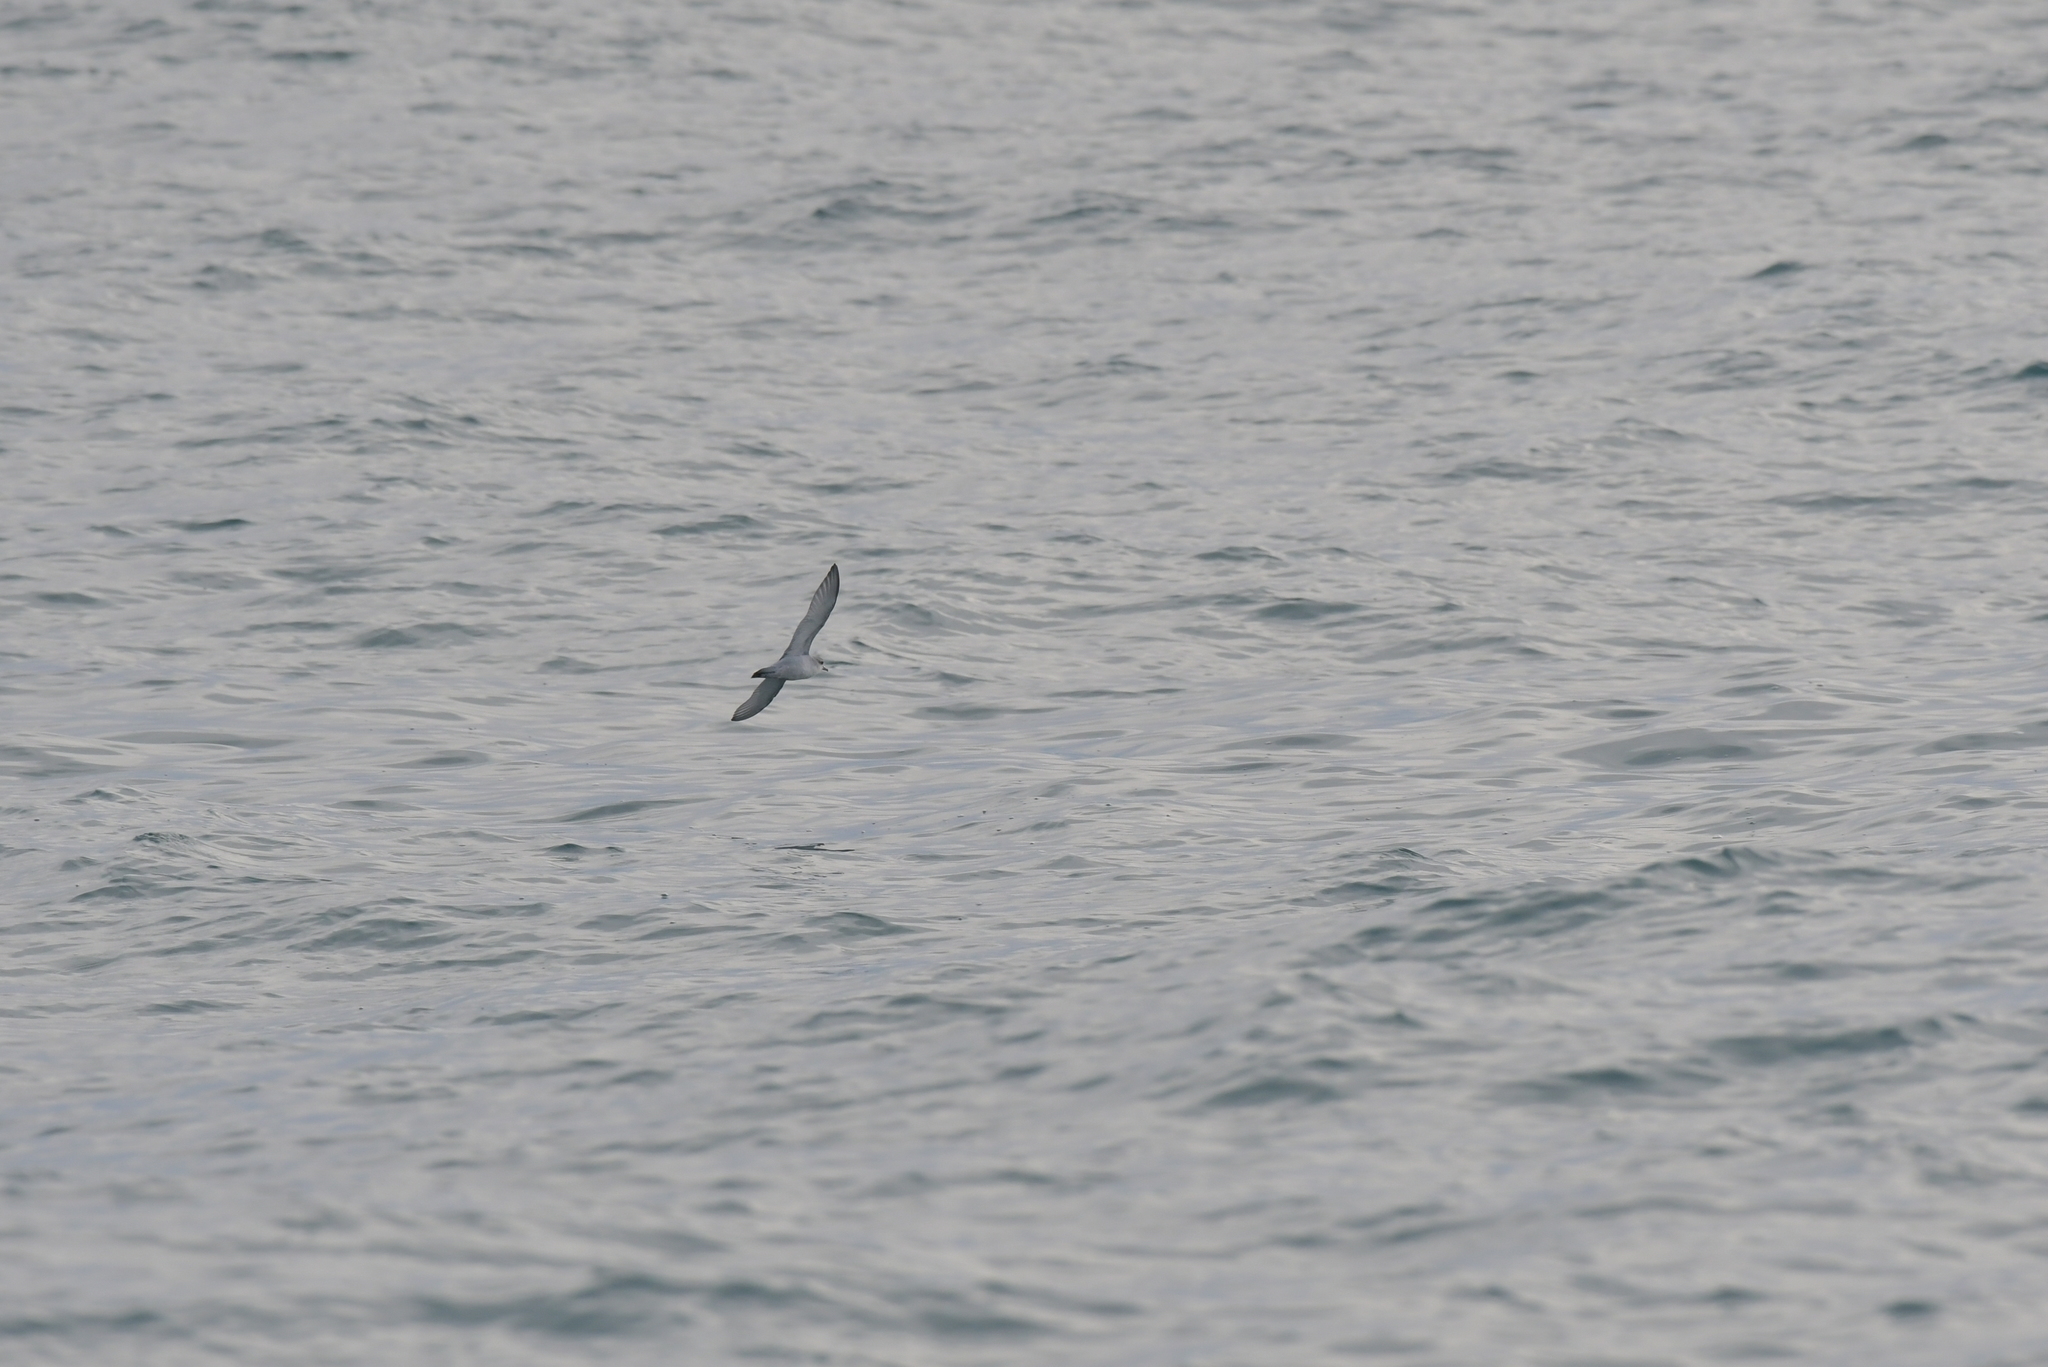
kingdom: Animalia
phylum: Chordata
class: Aves
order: Procellariiformes
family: Procellariidae
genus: Pachyptila
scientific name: Pachyptila turtur
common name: Fairy prion
